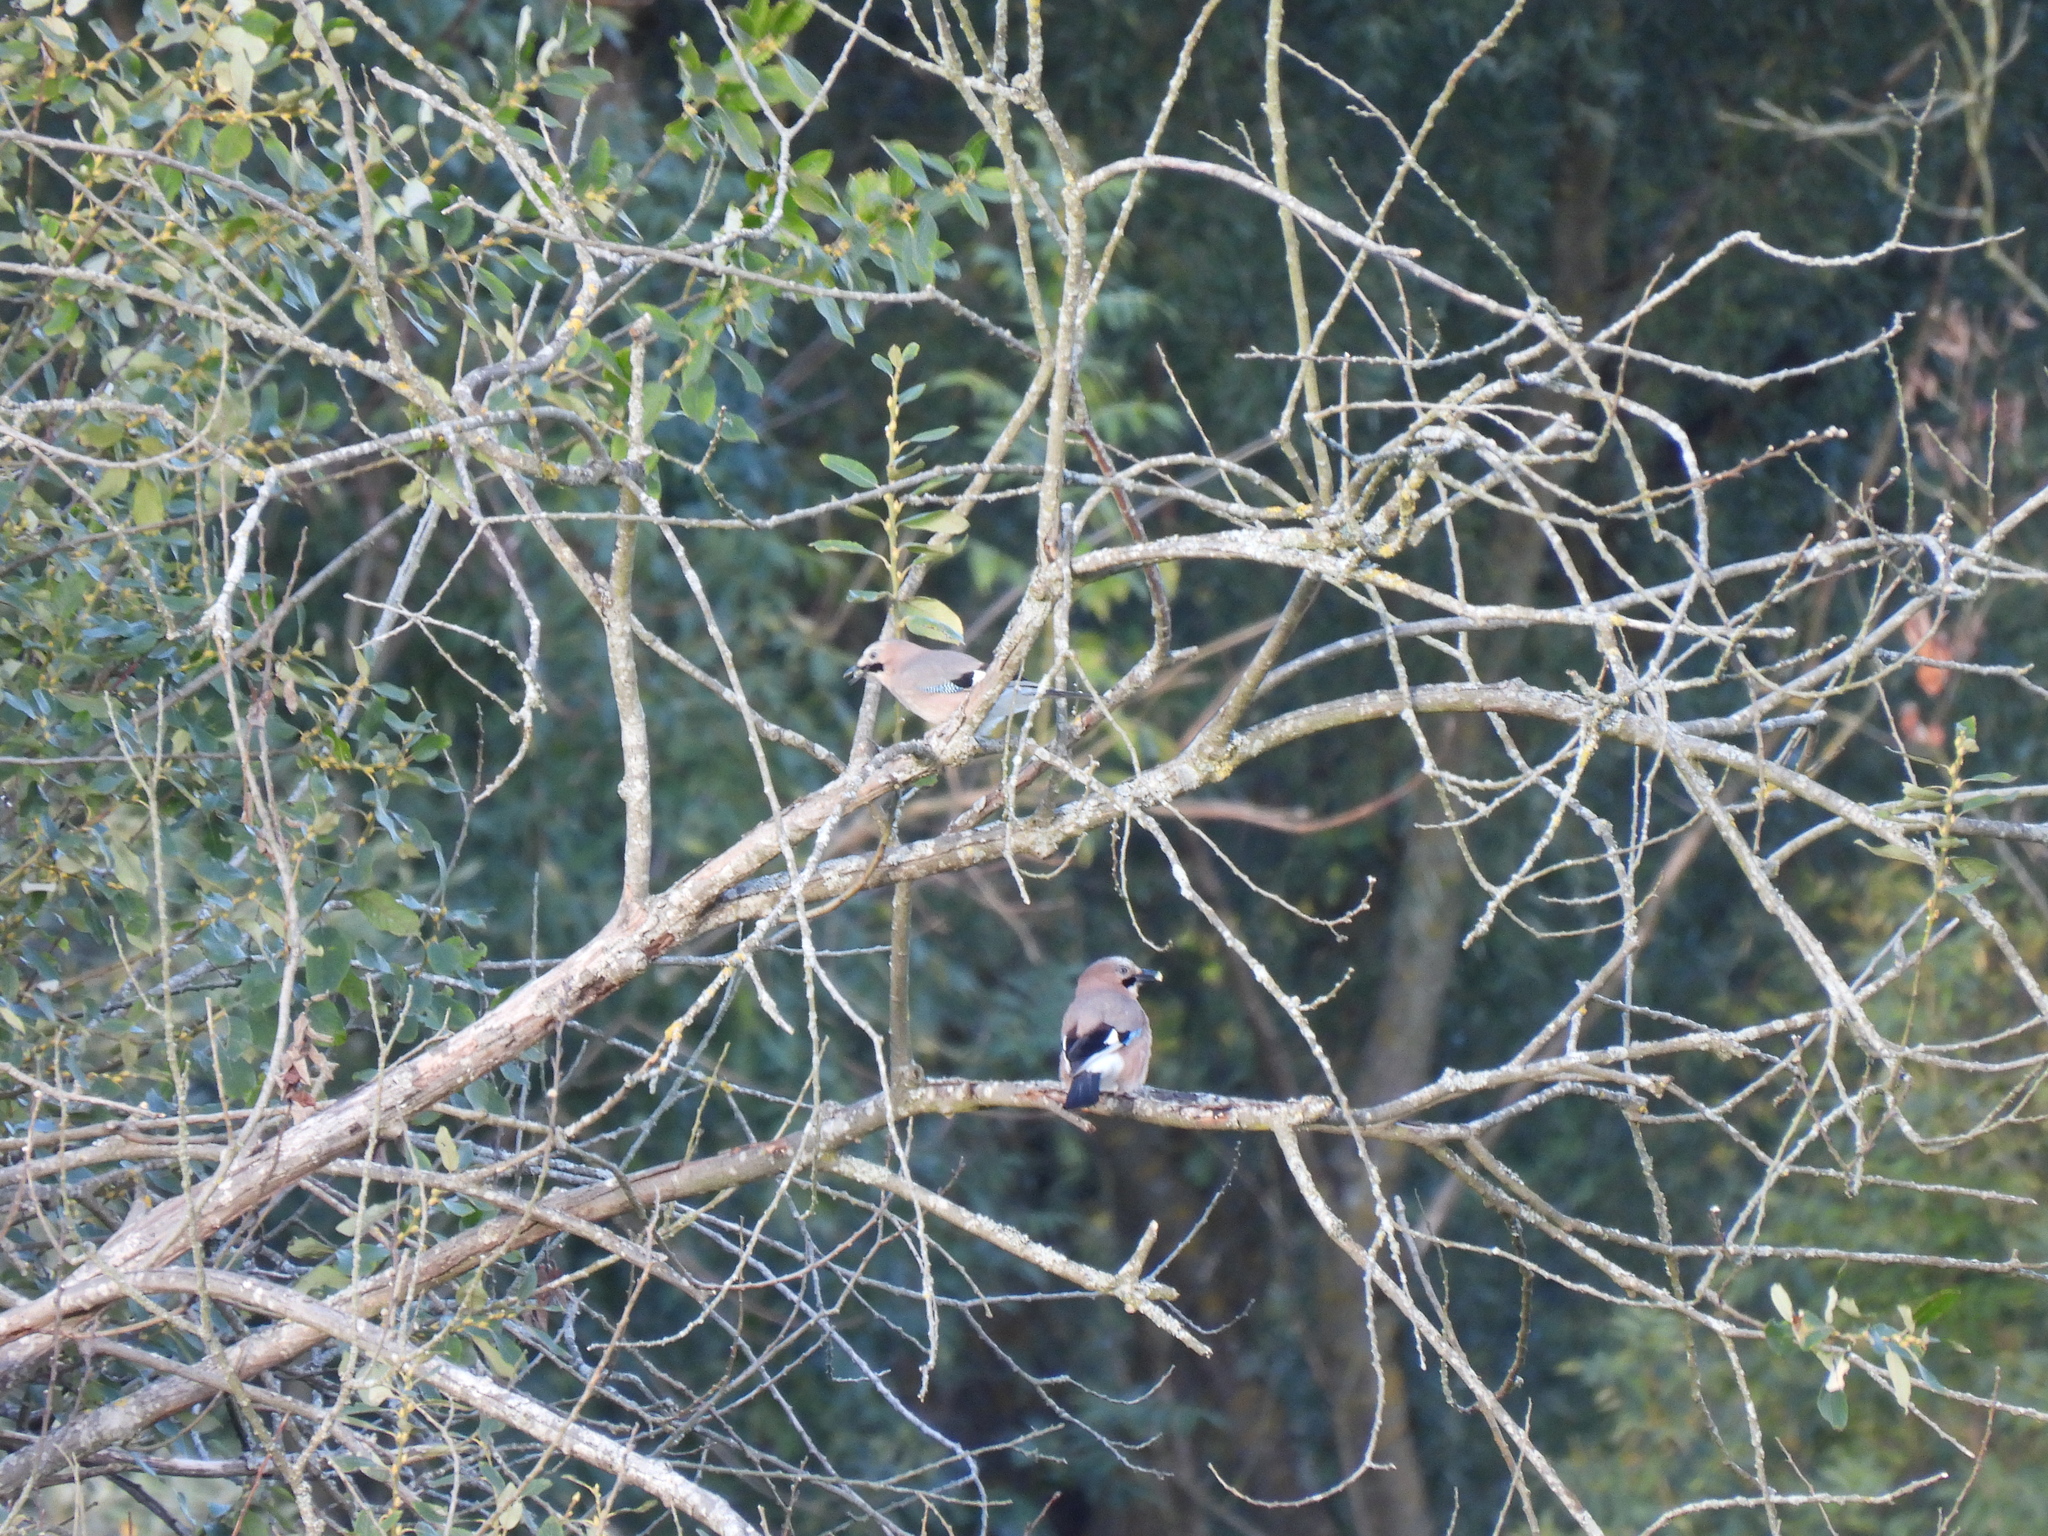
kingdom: Animalia
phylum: Chordata
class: Aves
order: Passeriformes
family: Corvidae
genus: Garrulus
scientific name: Garrulus glandarius
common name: Eurasian jay
